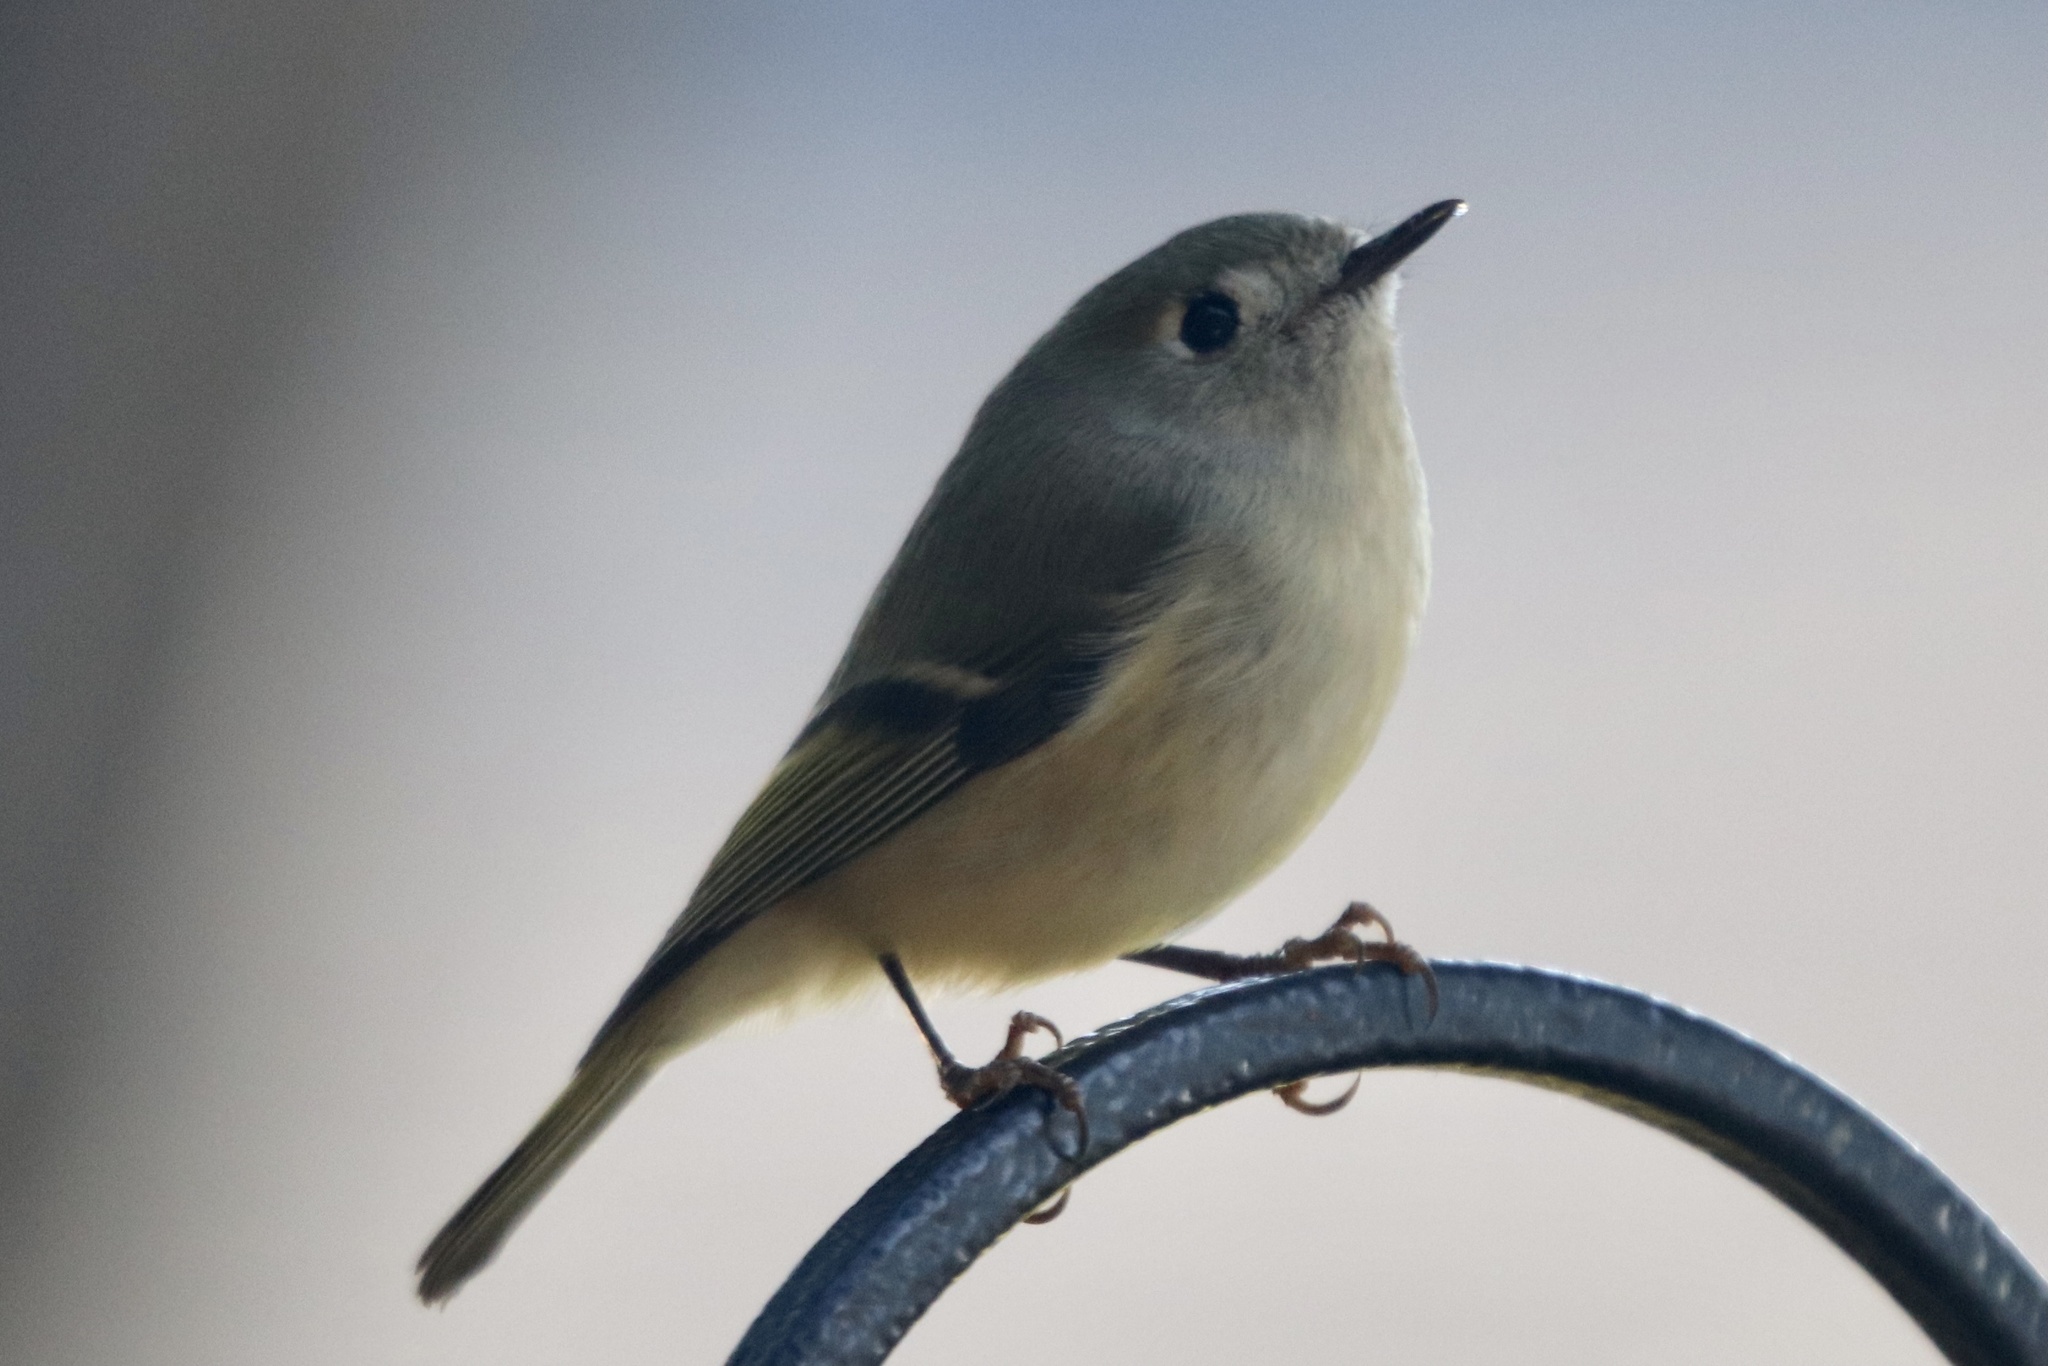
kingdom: Animalia
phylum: Chordata
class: Aves
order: Passeriformes
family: Regulidae
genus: Regulus
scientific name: Regulus calendula
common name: Ruby-crowned kinglet
